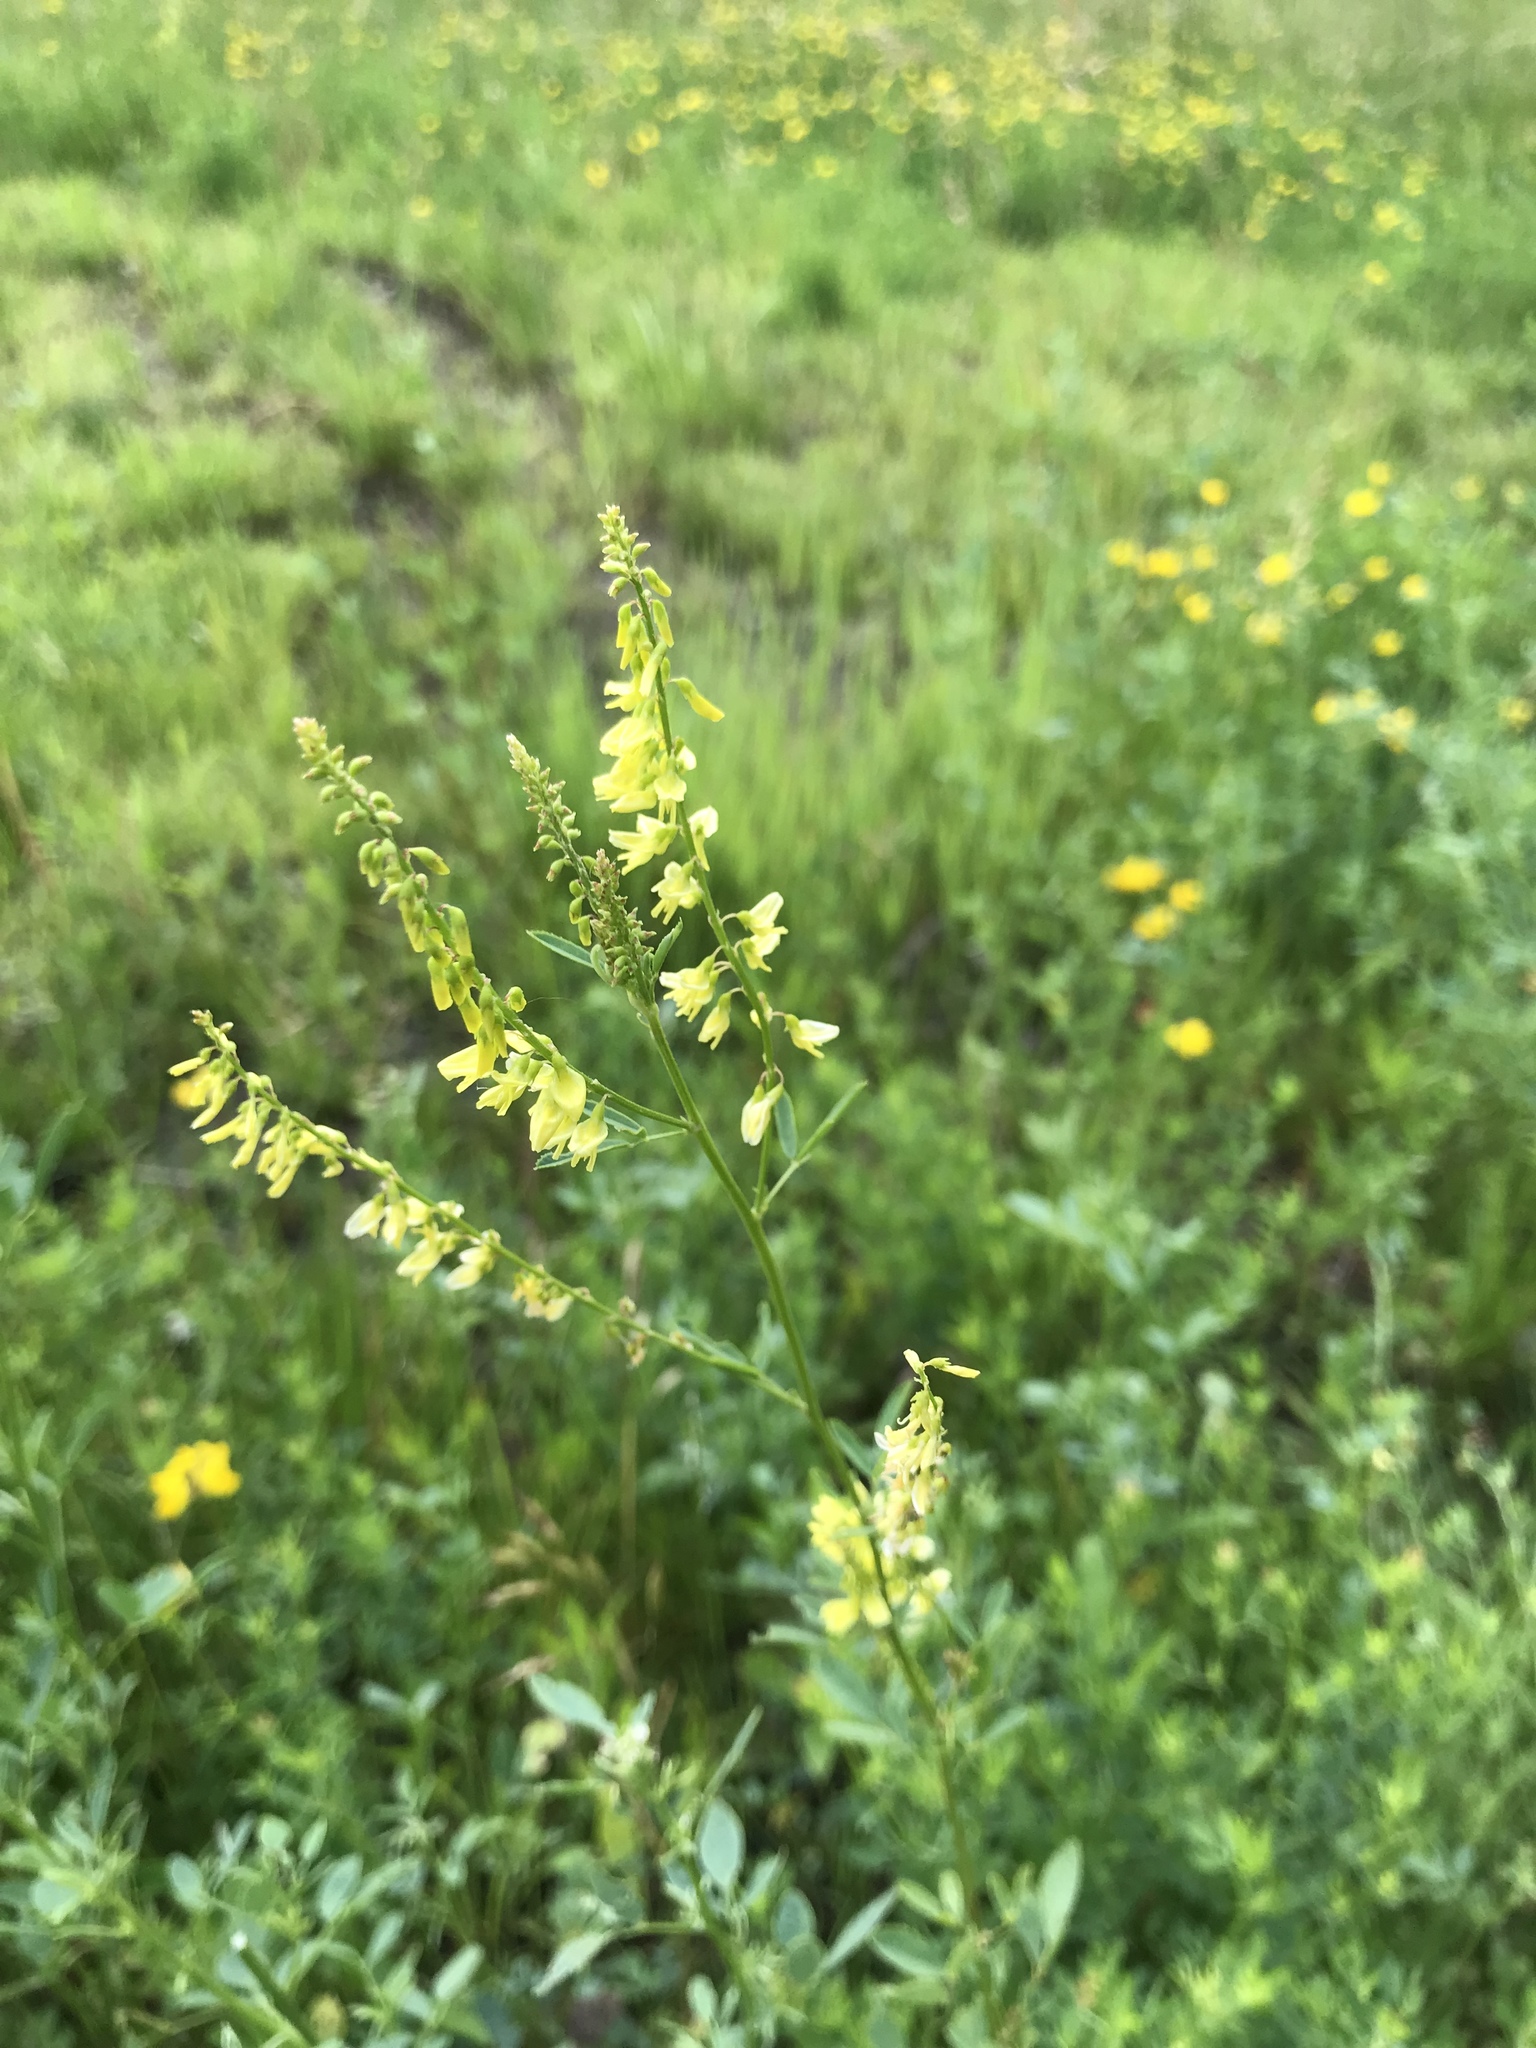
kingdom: Plantae
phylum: Tracheophyta
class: Magnoliopsida
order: Fabales
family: Fabaceae
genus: Melilotus
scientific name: Melilotus officinalis
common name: Sweetclover
